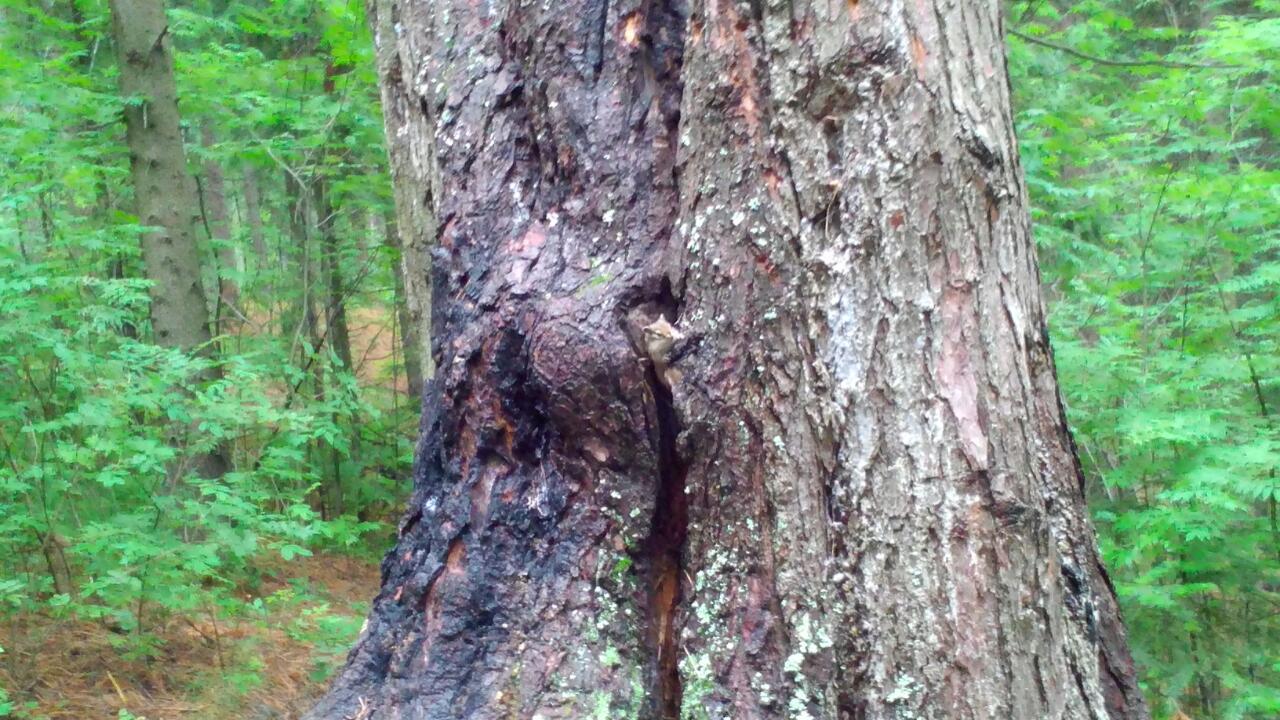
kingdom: Animalia
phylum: Chordata
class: Mammalia
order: Rodentia
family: Sciuridae
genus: Tamias
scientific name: Tamias sibiricus
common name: Siberian chipmunk
